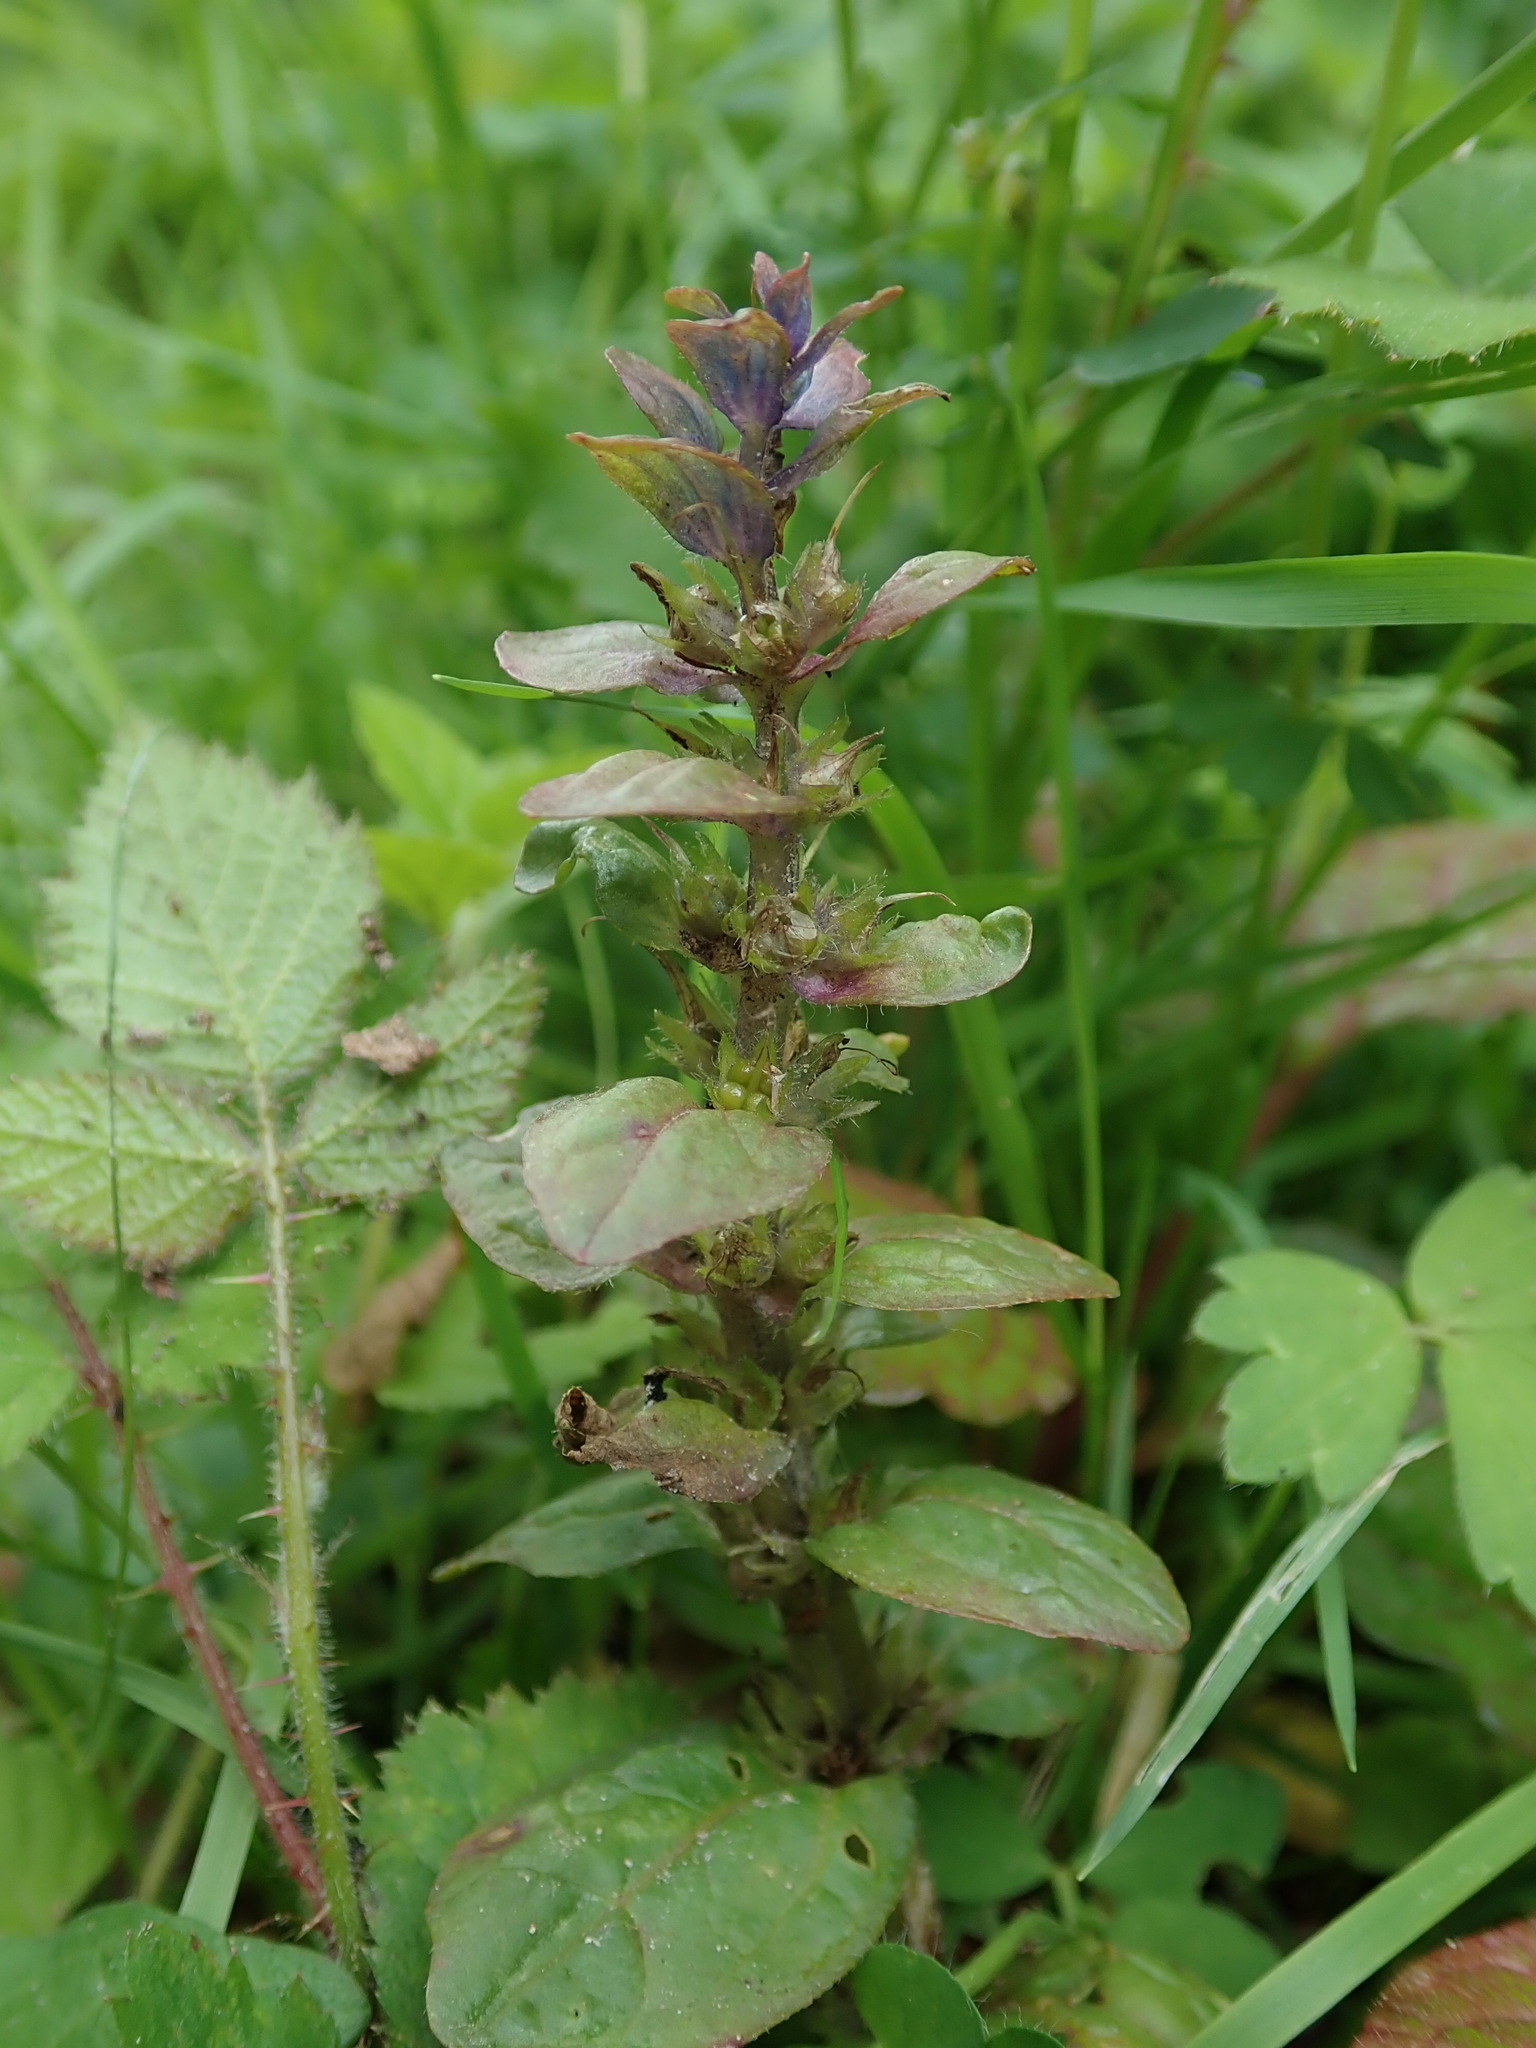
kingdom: Plantae
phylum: Tracheophyta
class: Magnoliopsida
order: Lamiales
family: Lamiaceae
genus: Ajuga
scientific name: Ajuga reptans
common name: Bugle
